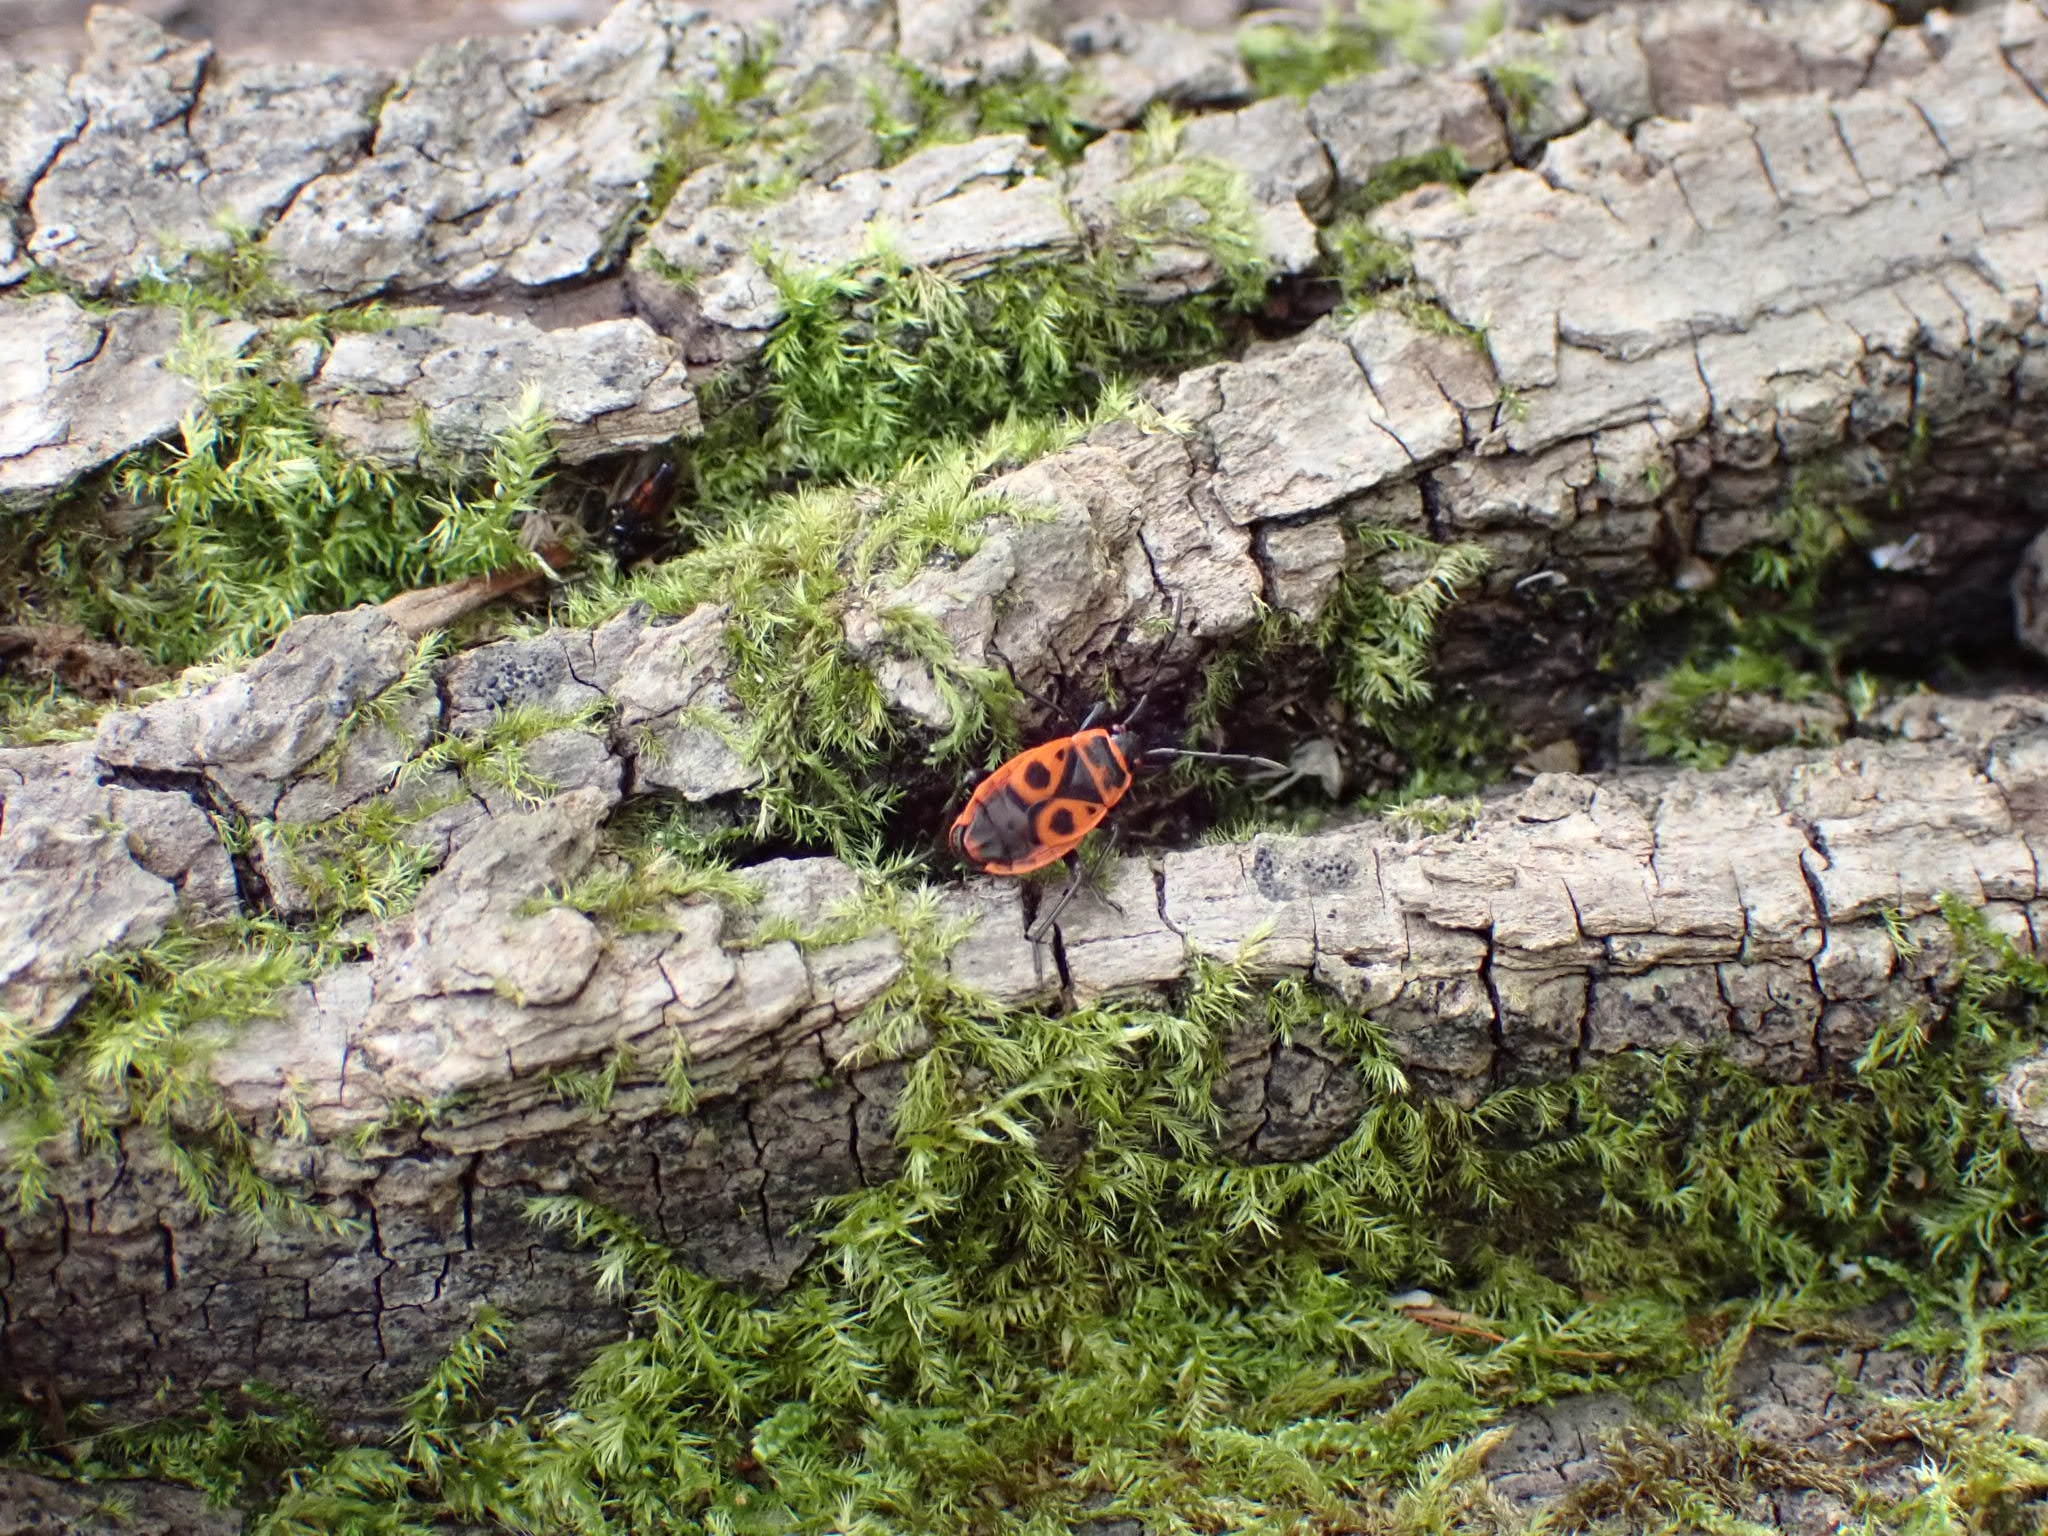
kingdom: Animalia
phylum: Arthropoda
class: Insecta
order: Hemiptera
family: Pyrrhocoridae
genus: Pyrrhocoris
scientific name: Pyrrhocoris apterus
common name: Firebug
